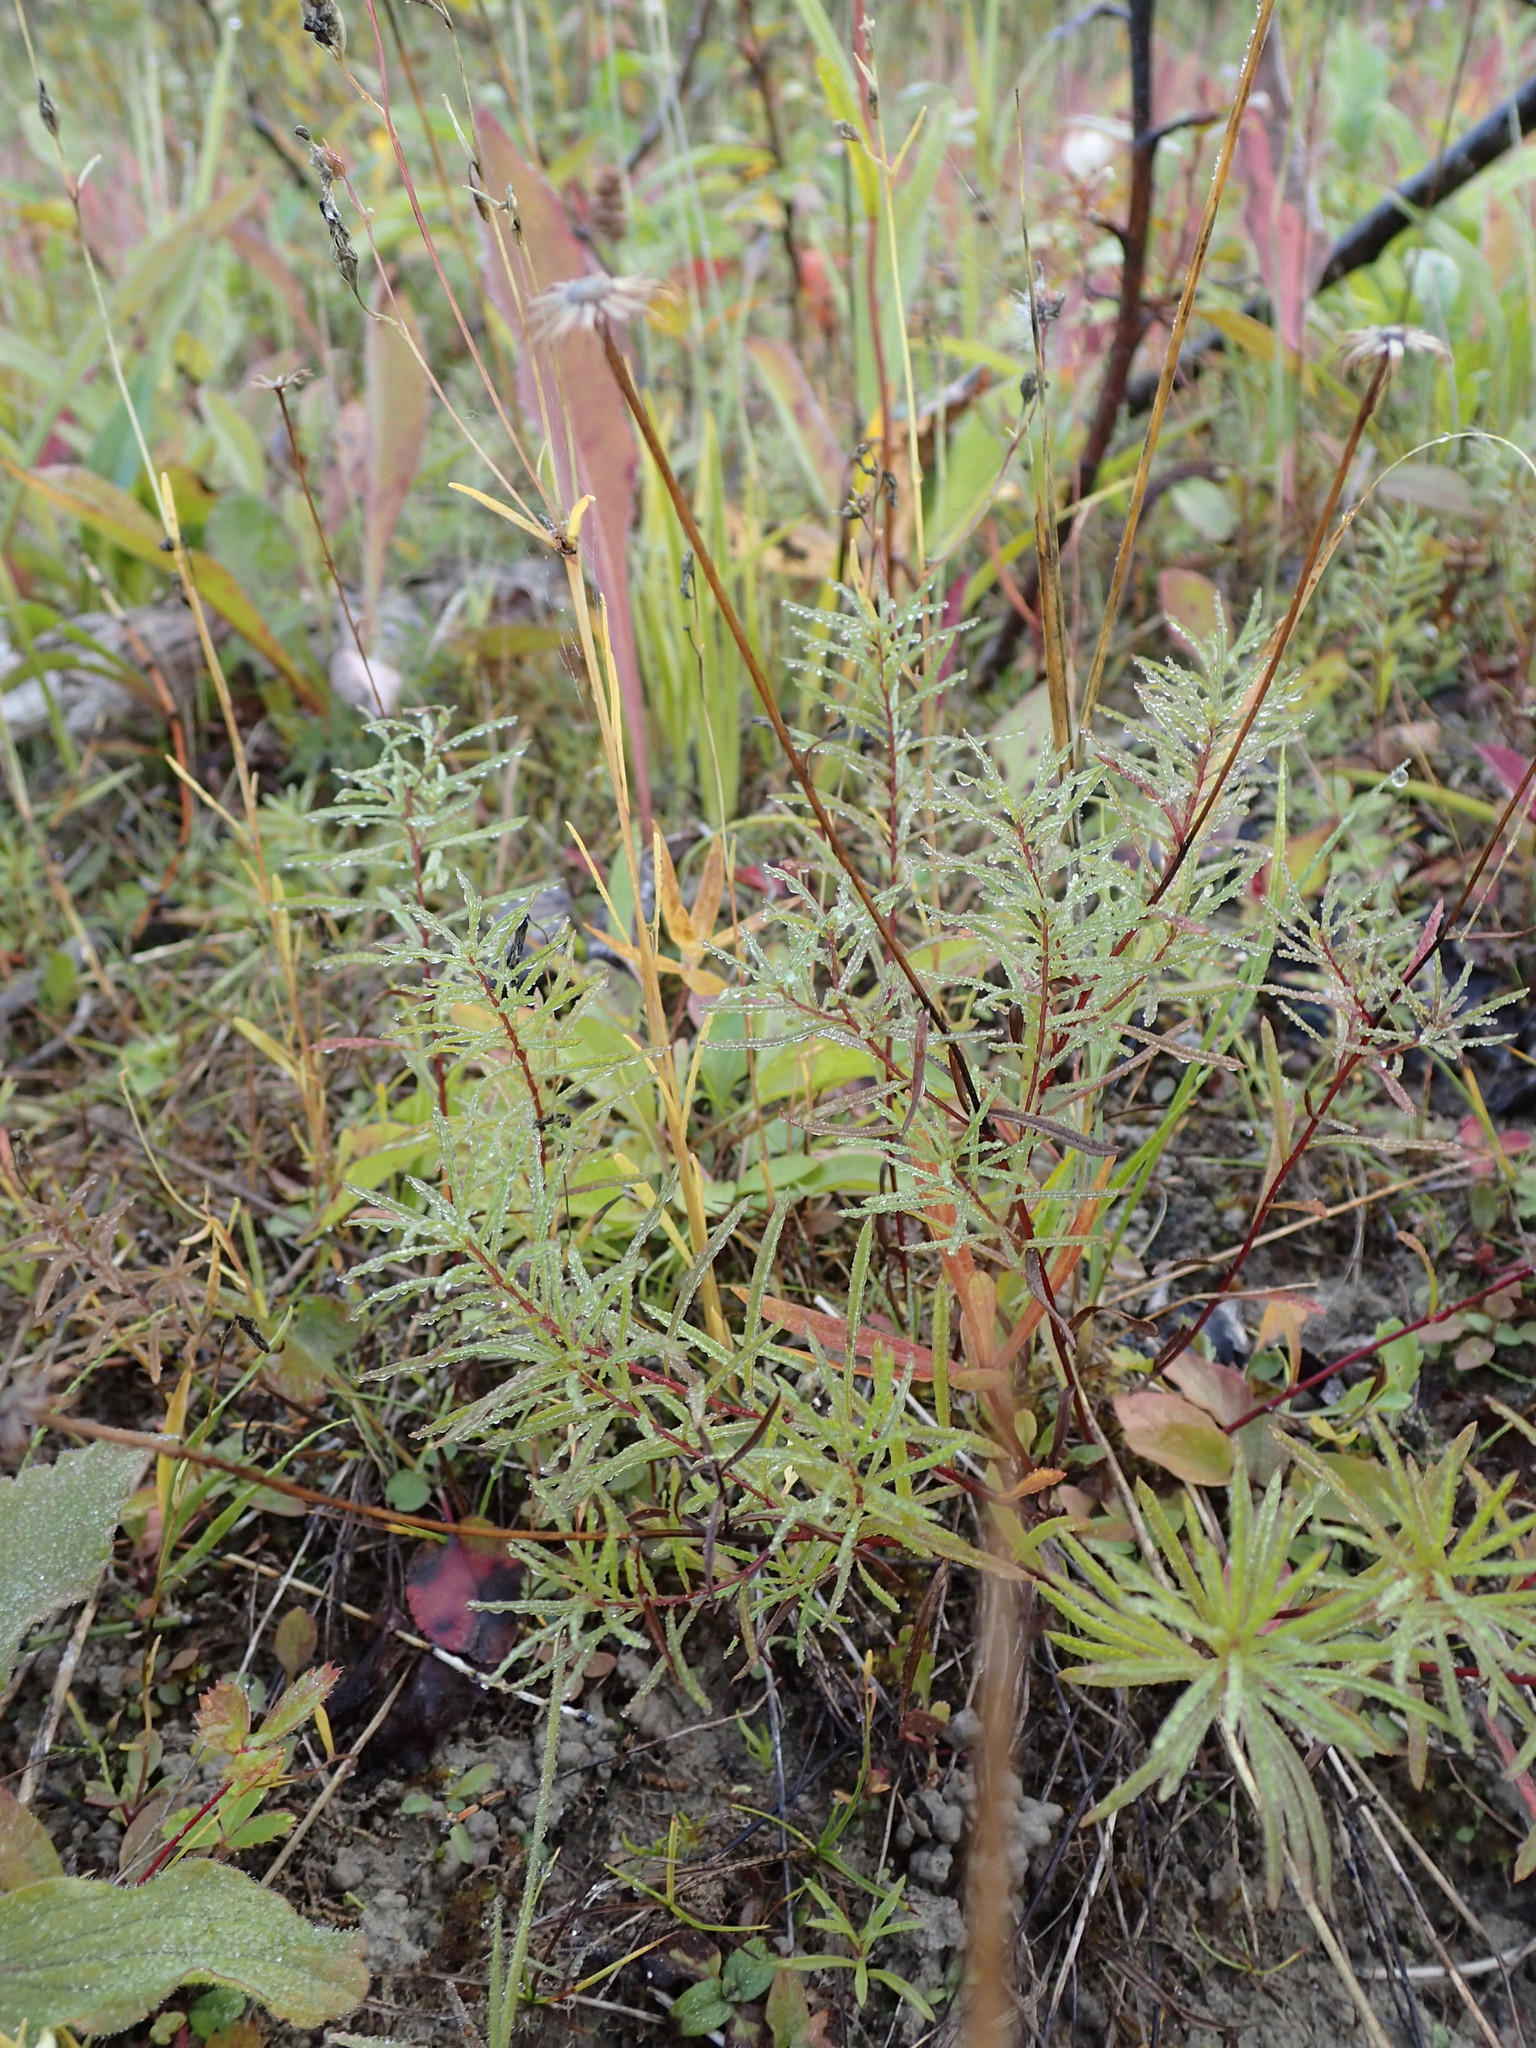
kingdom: Plantae
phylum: Tracheophyta
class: Magnoliopsida
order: Asterales
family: Asteraceae
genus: Erigeron
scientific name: Erigeron hyssopifolius
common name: Daisy fleabane
